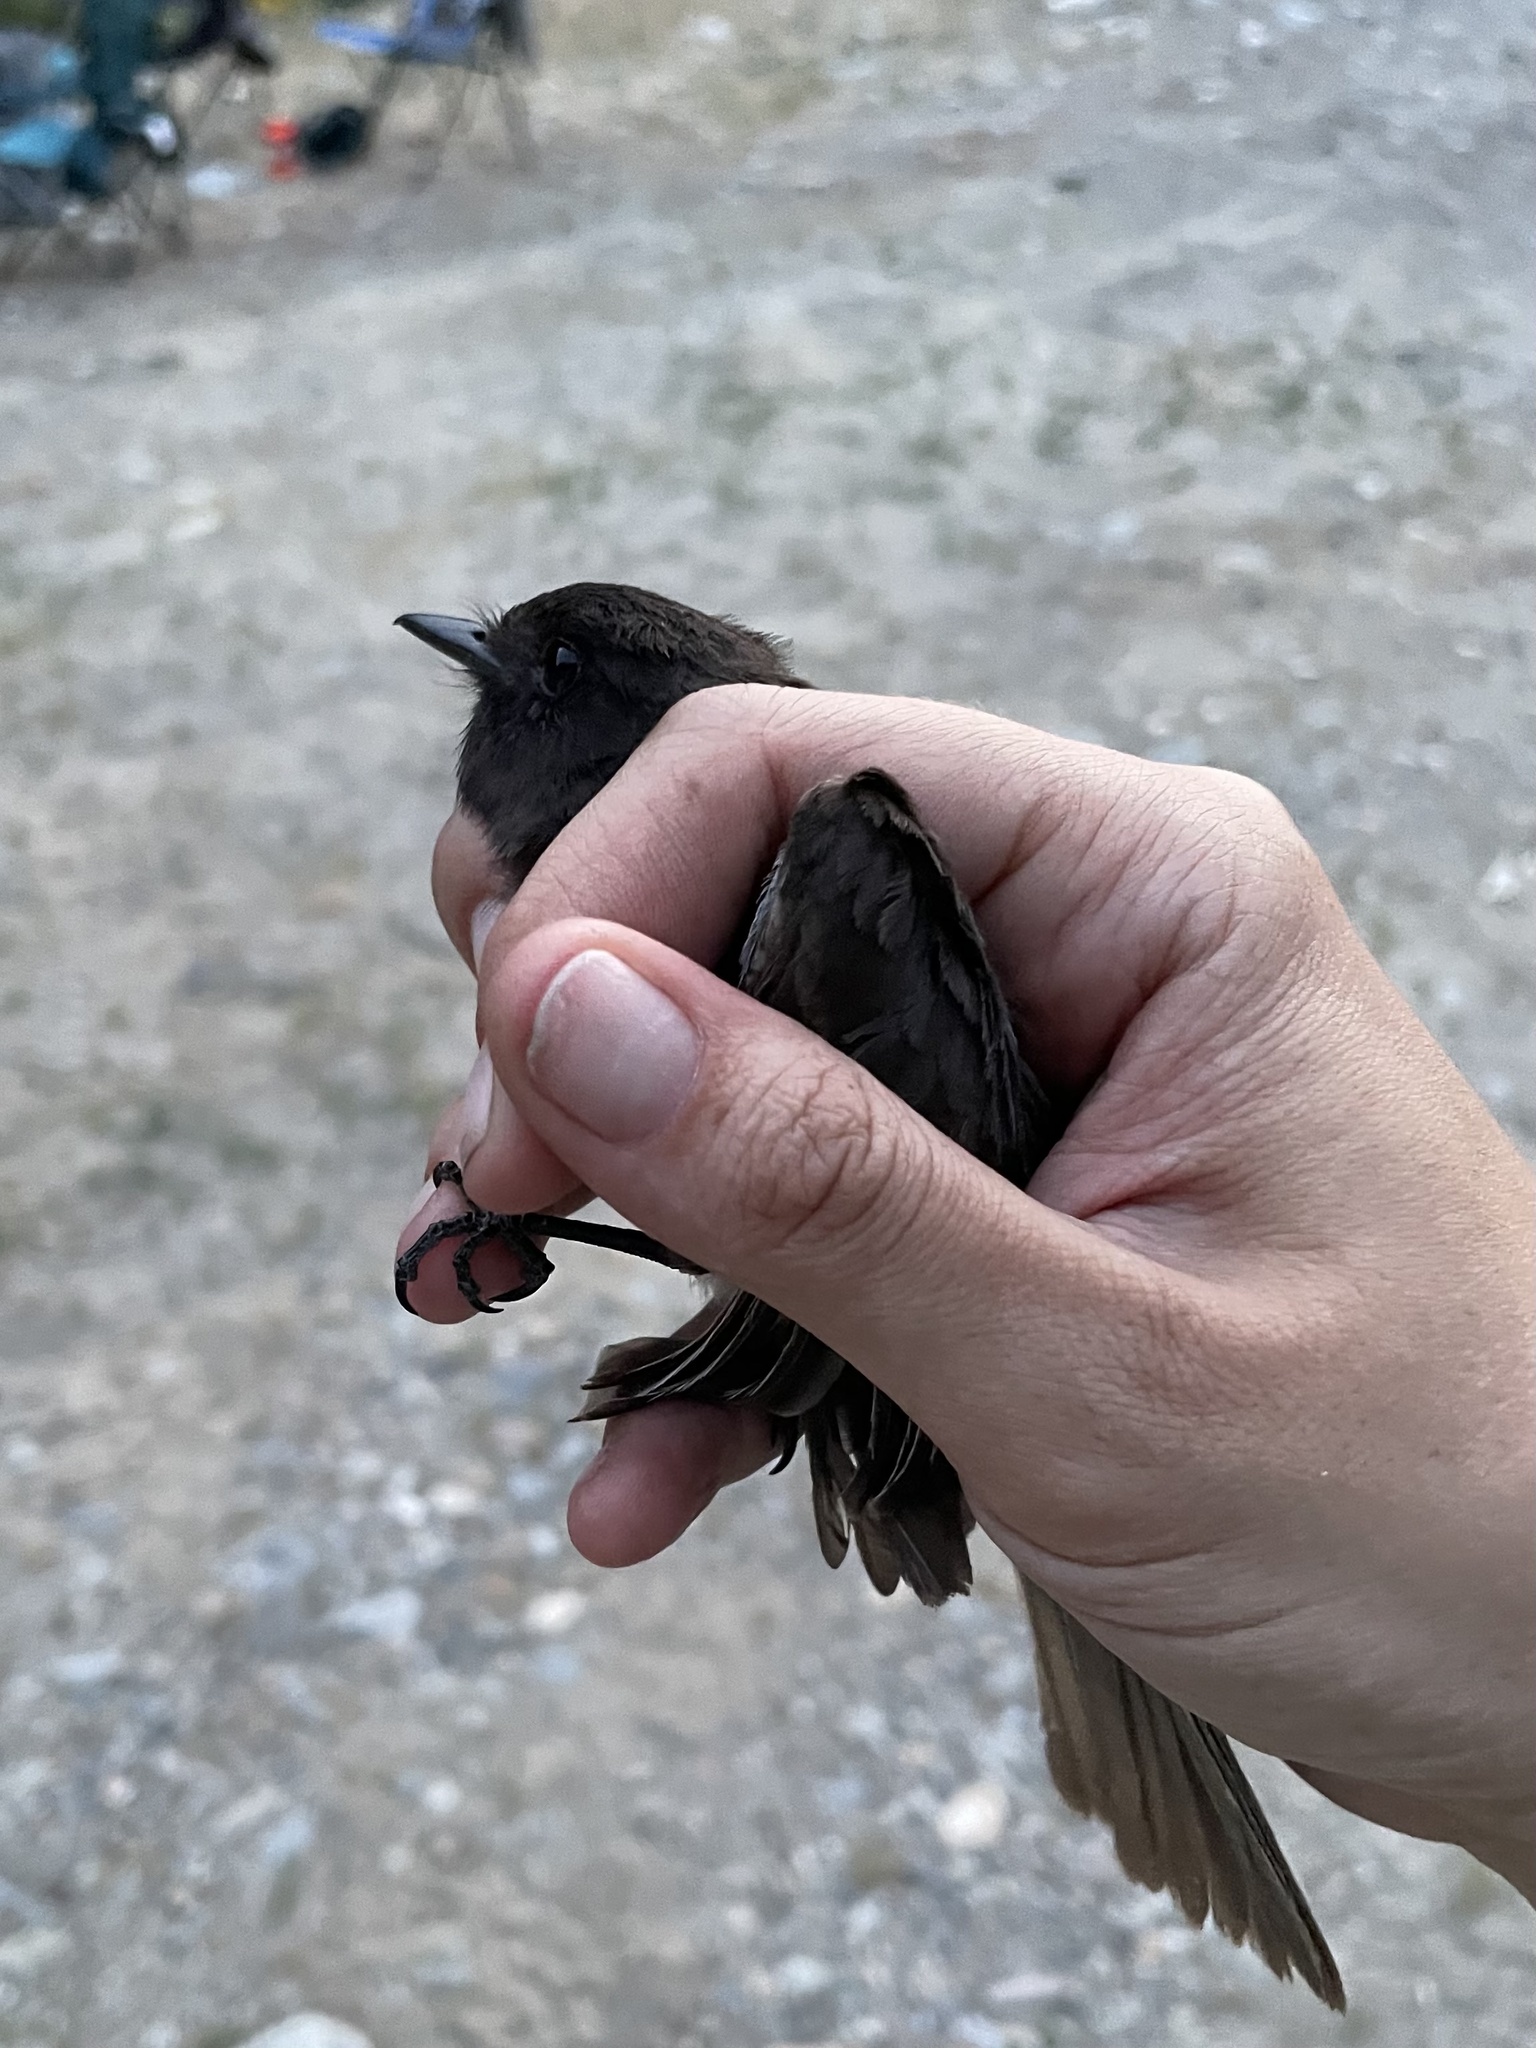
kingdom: Animalia
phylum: Chordata
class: Aves
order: Passeriformes
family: Tyrannidae
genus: Sayornis
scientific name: Sayornis nigricans
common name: Black phoebe
